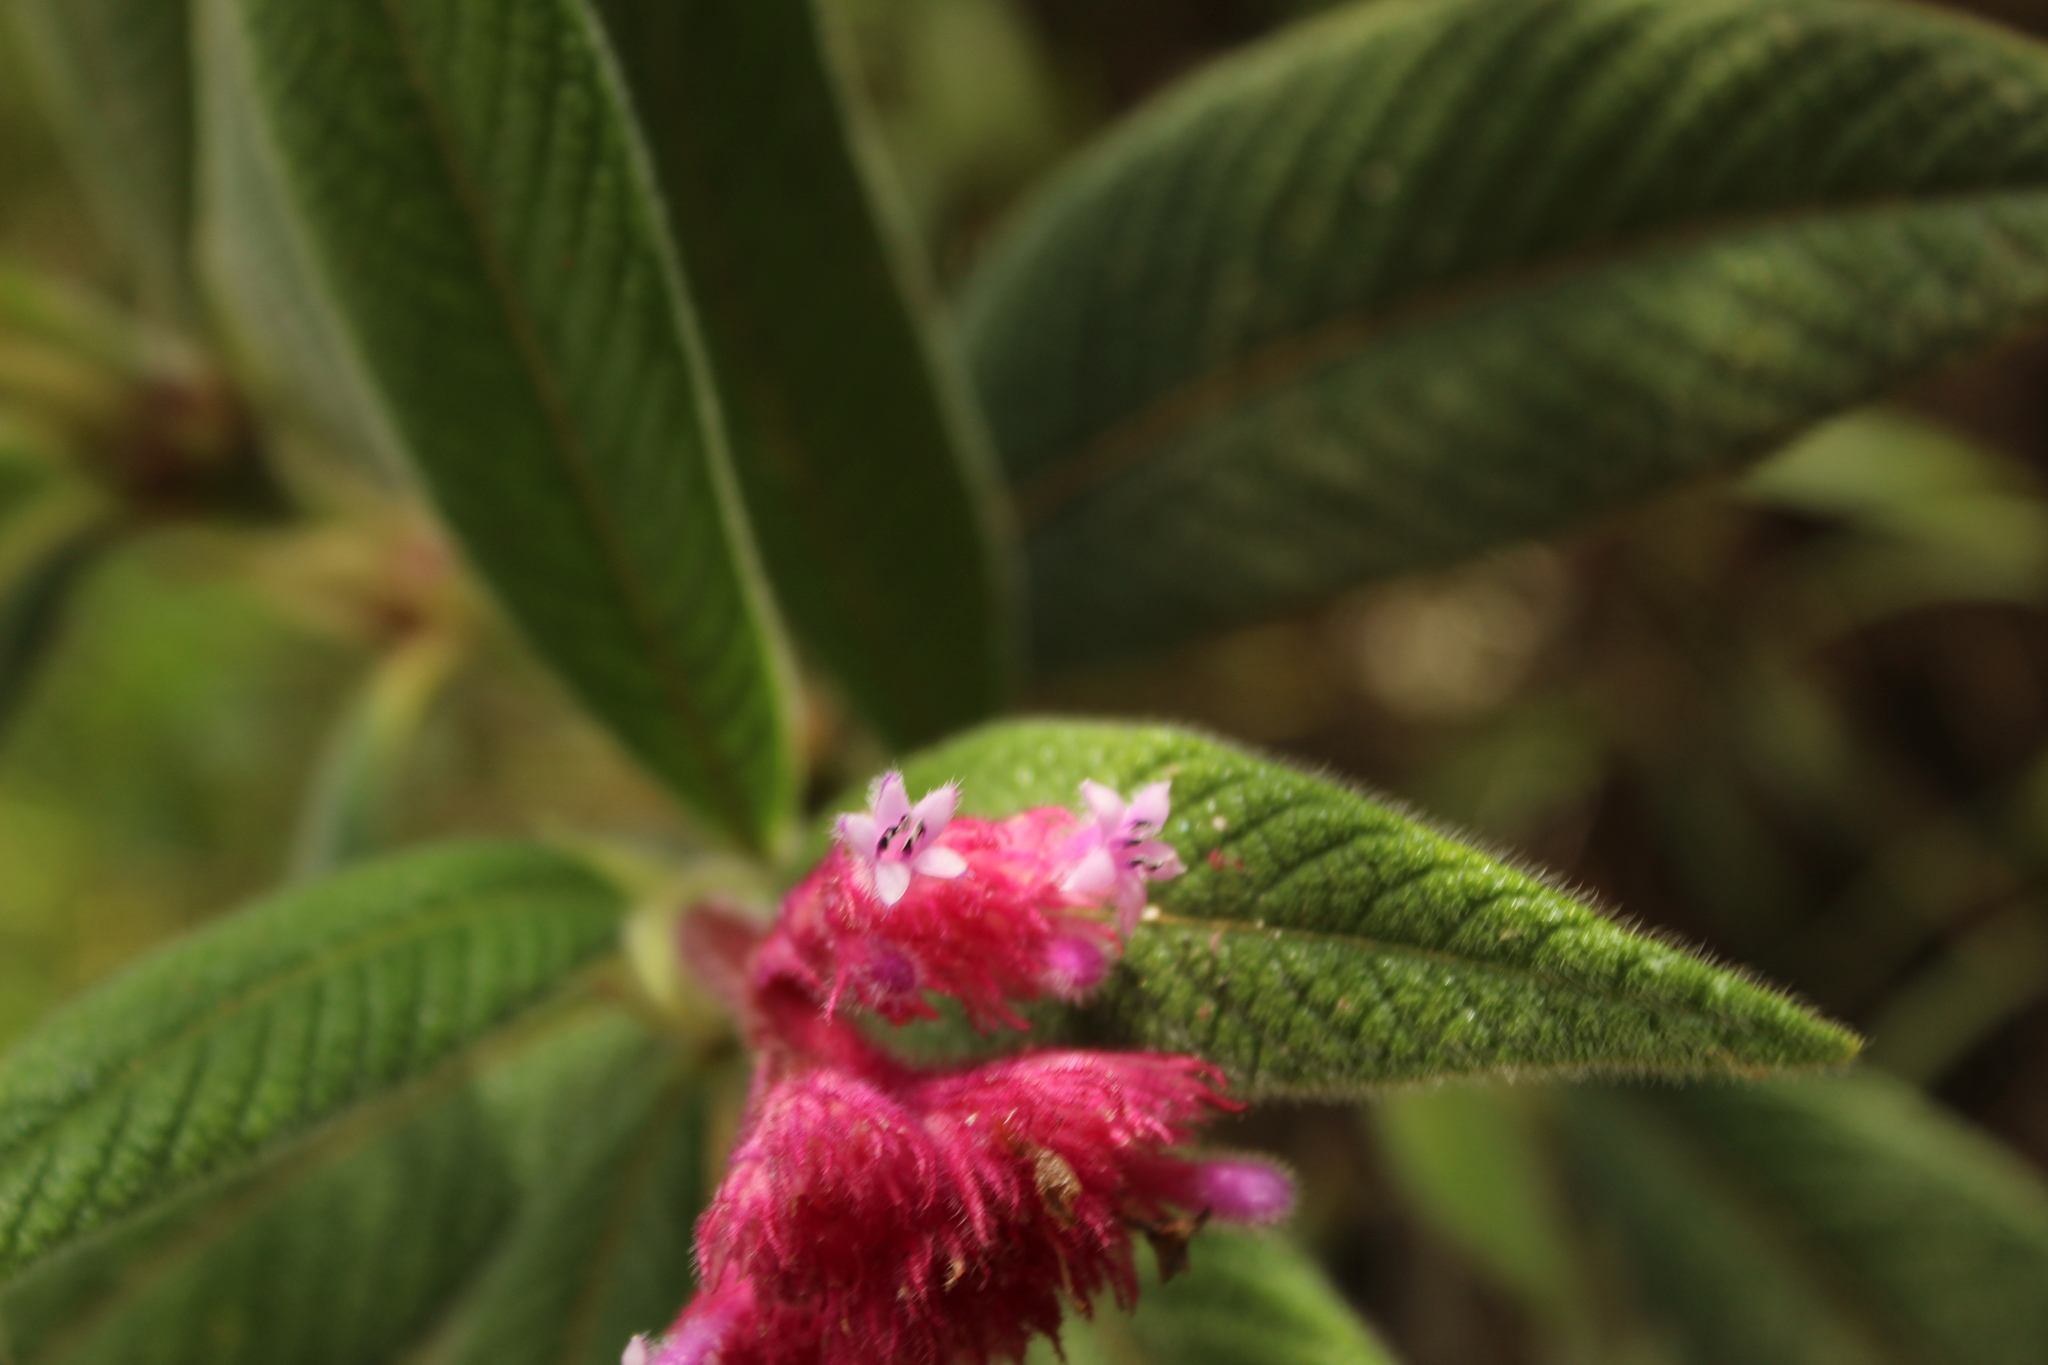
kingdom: Plantae
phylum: Tracheophyta
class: Magnoliopsida
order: Gentianales
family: Rubiaceae
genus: Palicourea
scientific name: Palicourea erythrocephala
